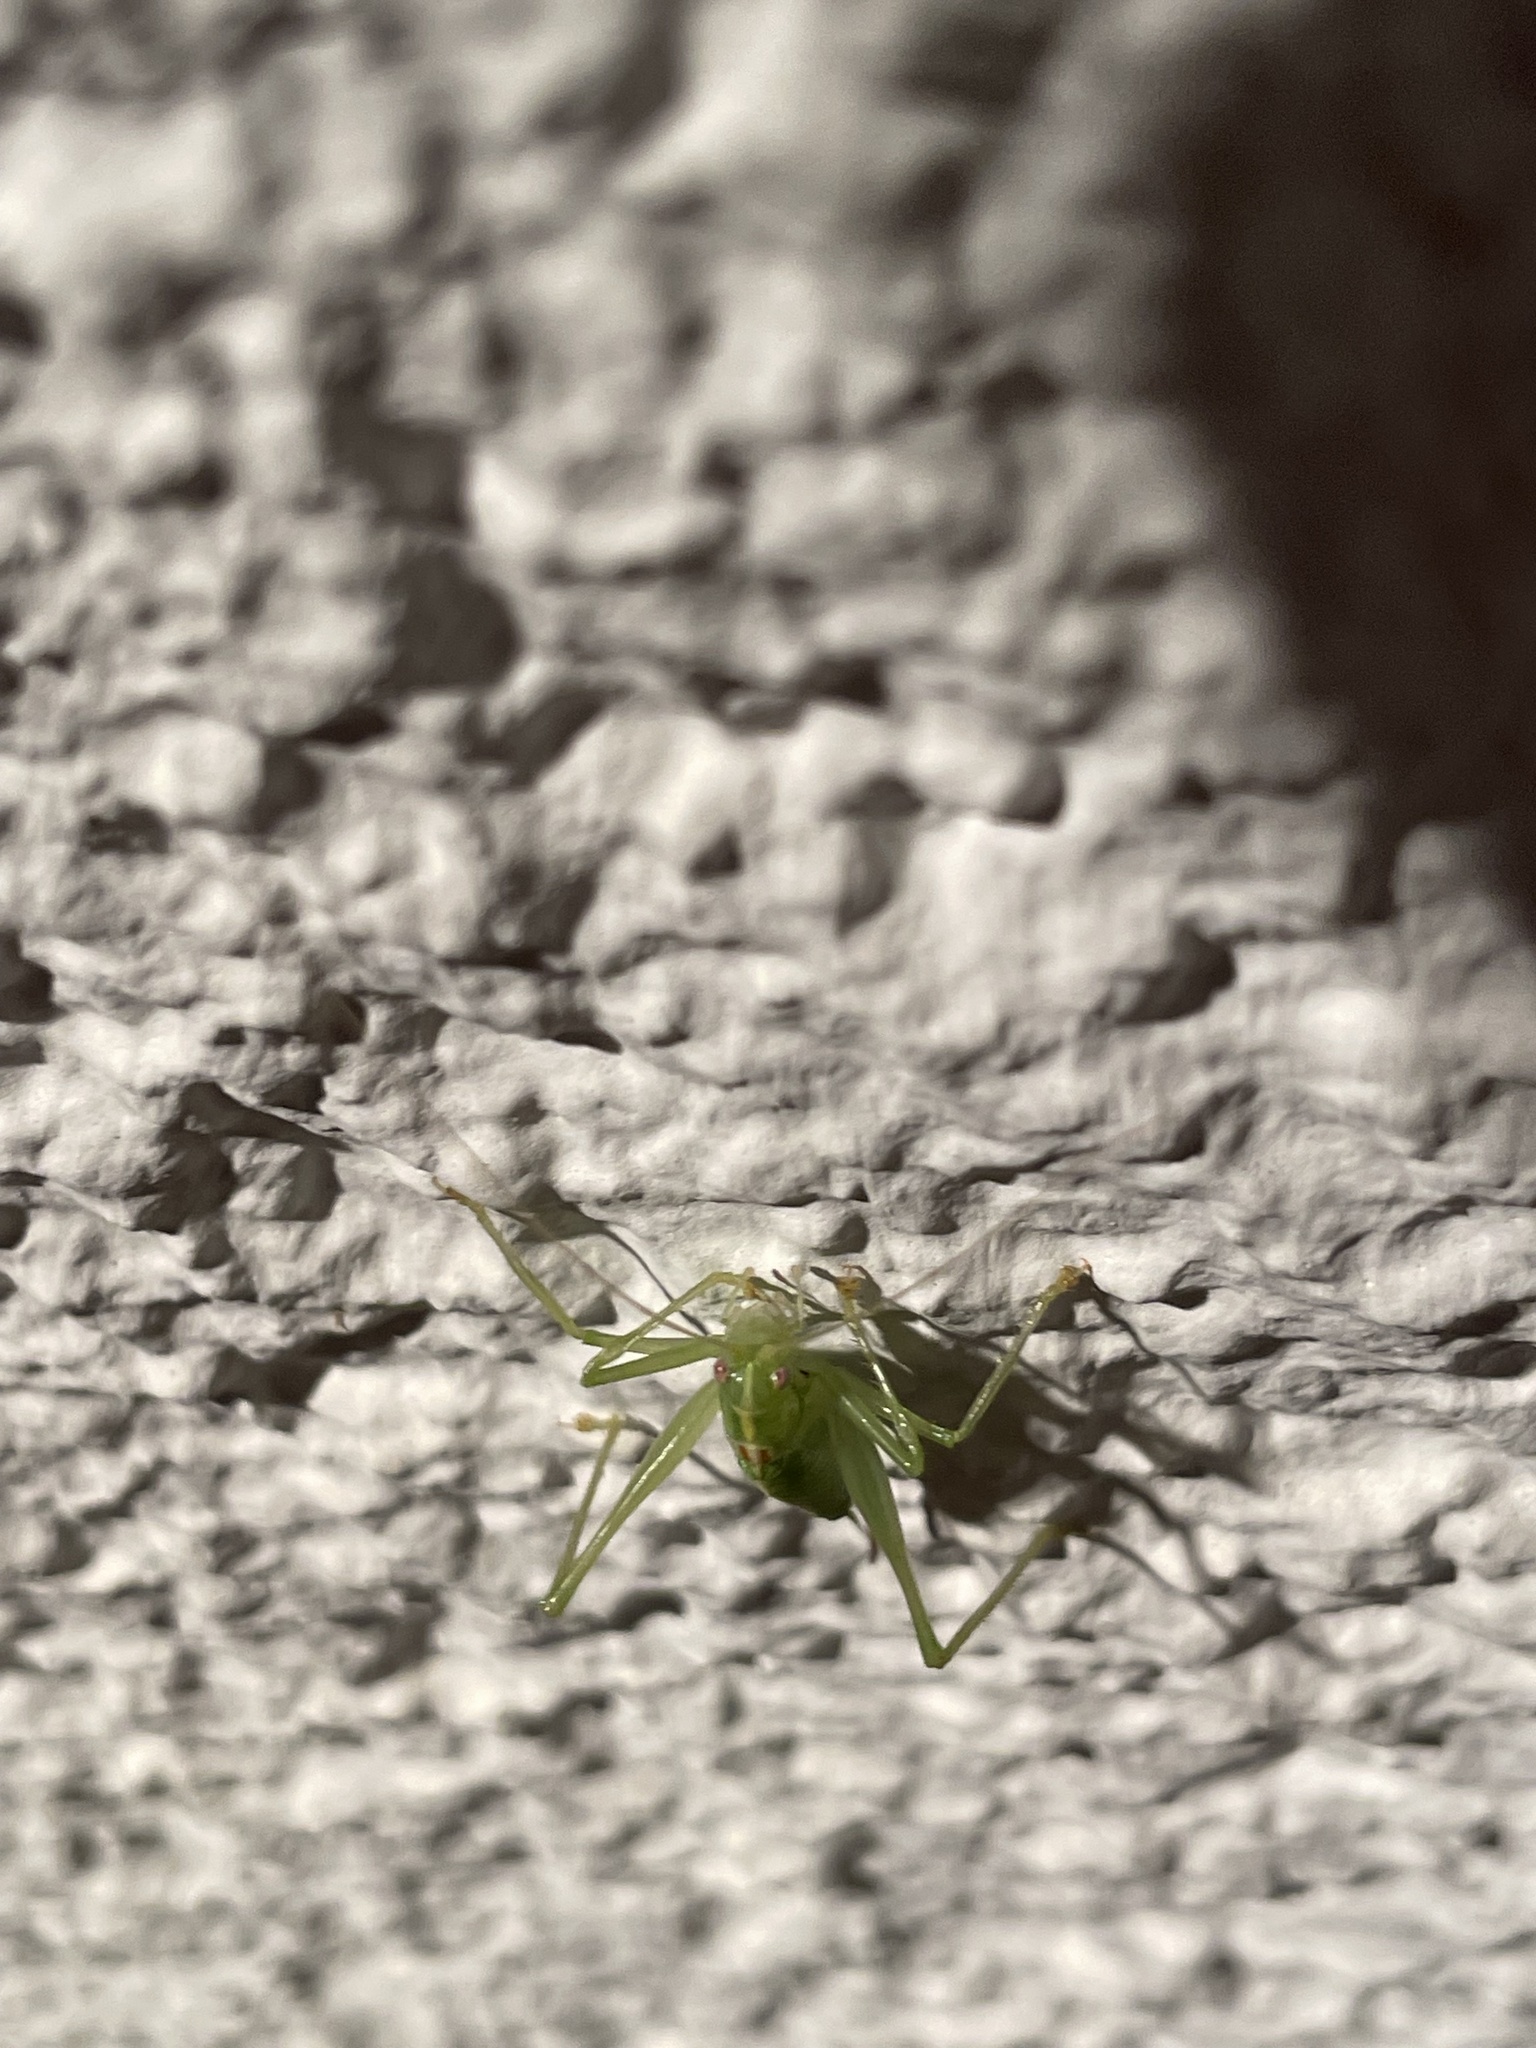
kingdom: Animalia
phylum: Arthropoda
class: Insecta
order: Orthoptera
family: Tettigoniidae
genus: Meconema
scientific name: Meconema meridionale
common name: Southern oak bush-cricket
